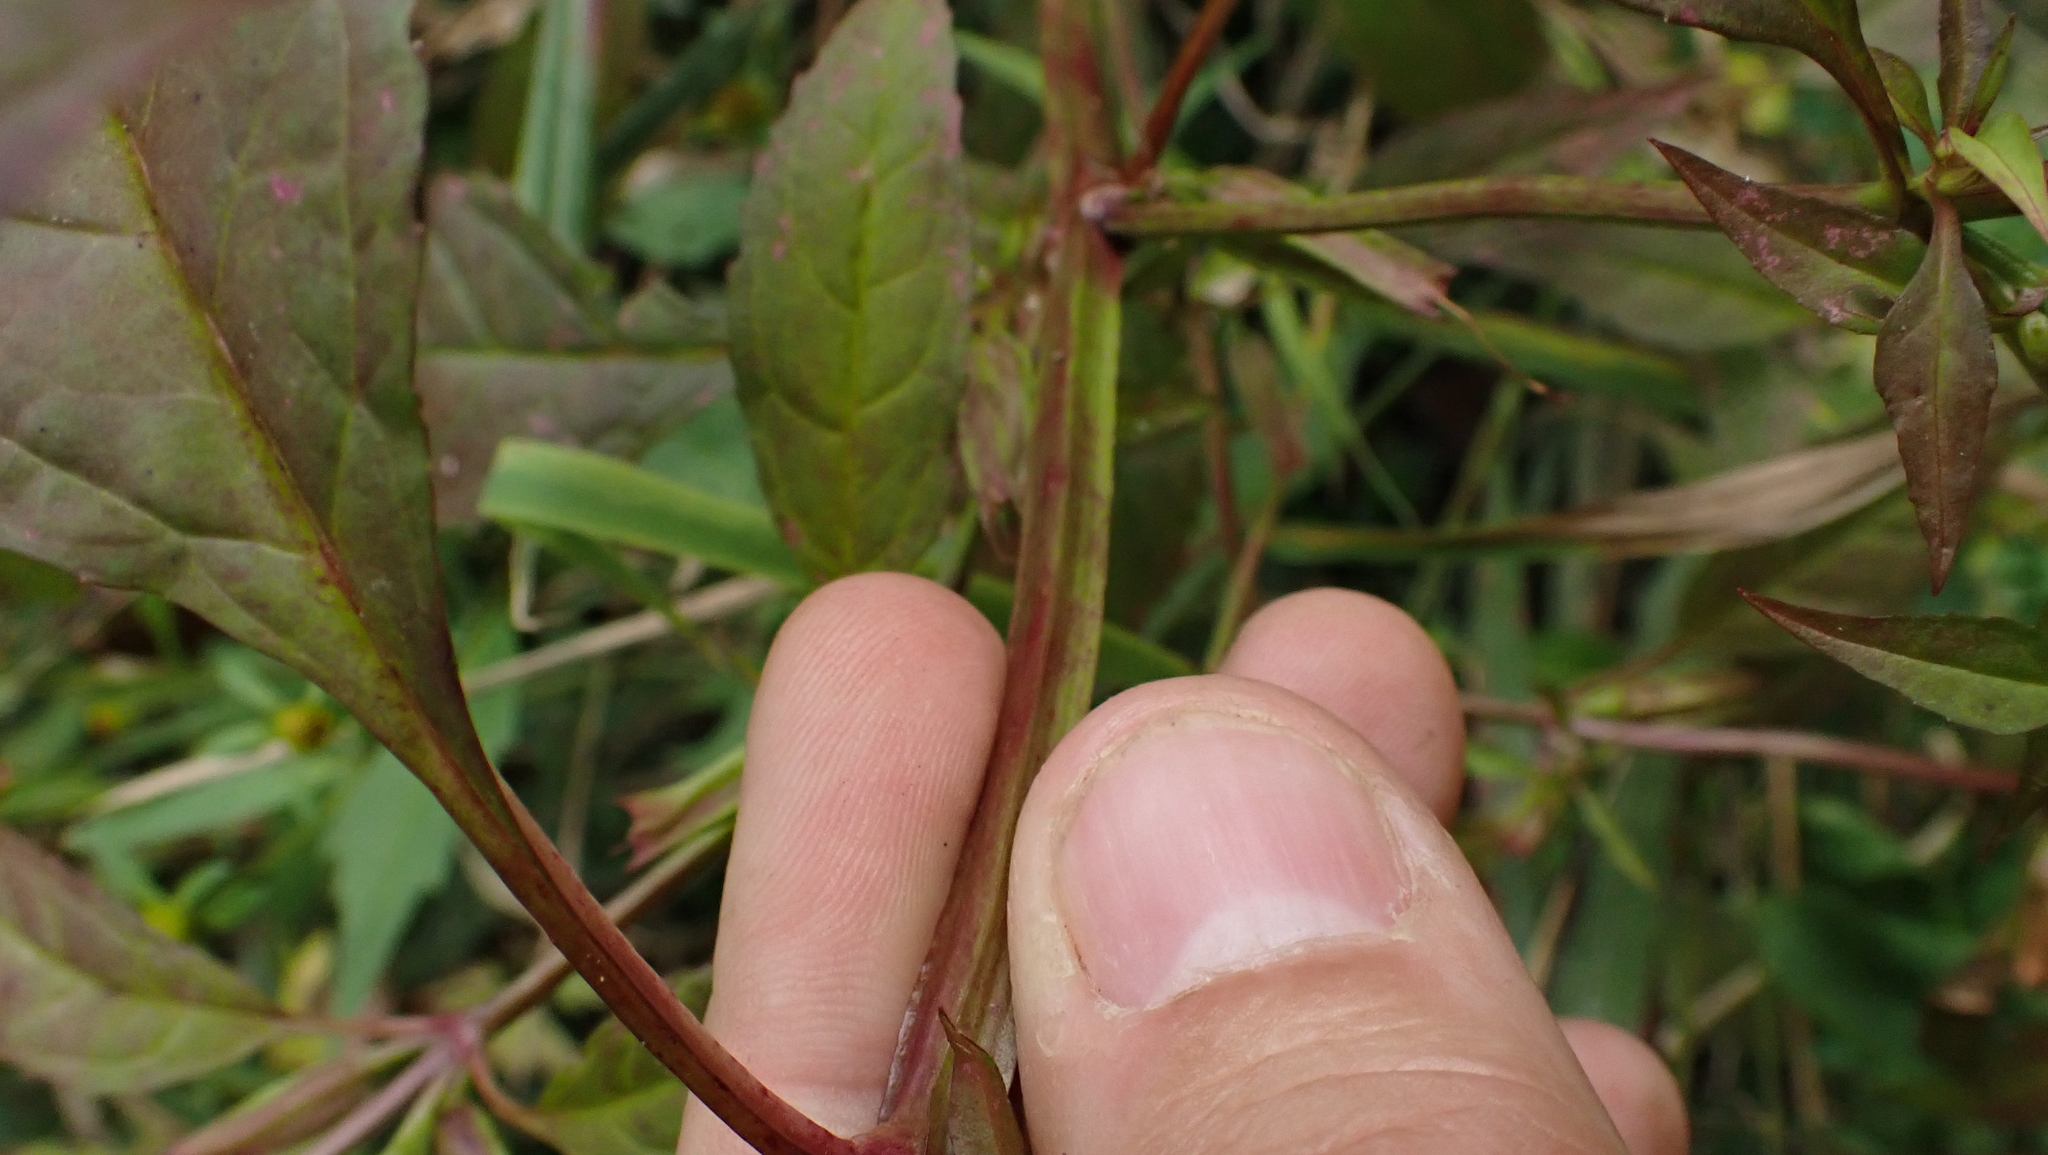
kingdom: Plantae
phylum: Tracheophyta
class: Magnoliopsida
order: Lamiales
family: Phrymaceae
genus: Mimulus
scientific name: Mimulus alatus
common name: Sharp-wing monkey-flower
